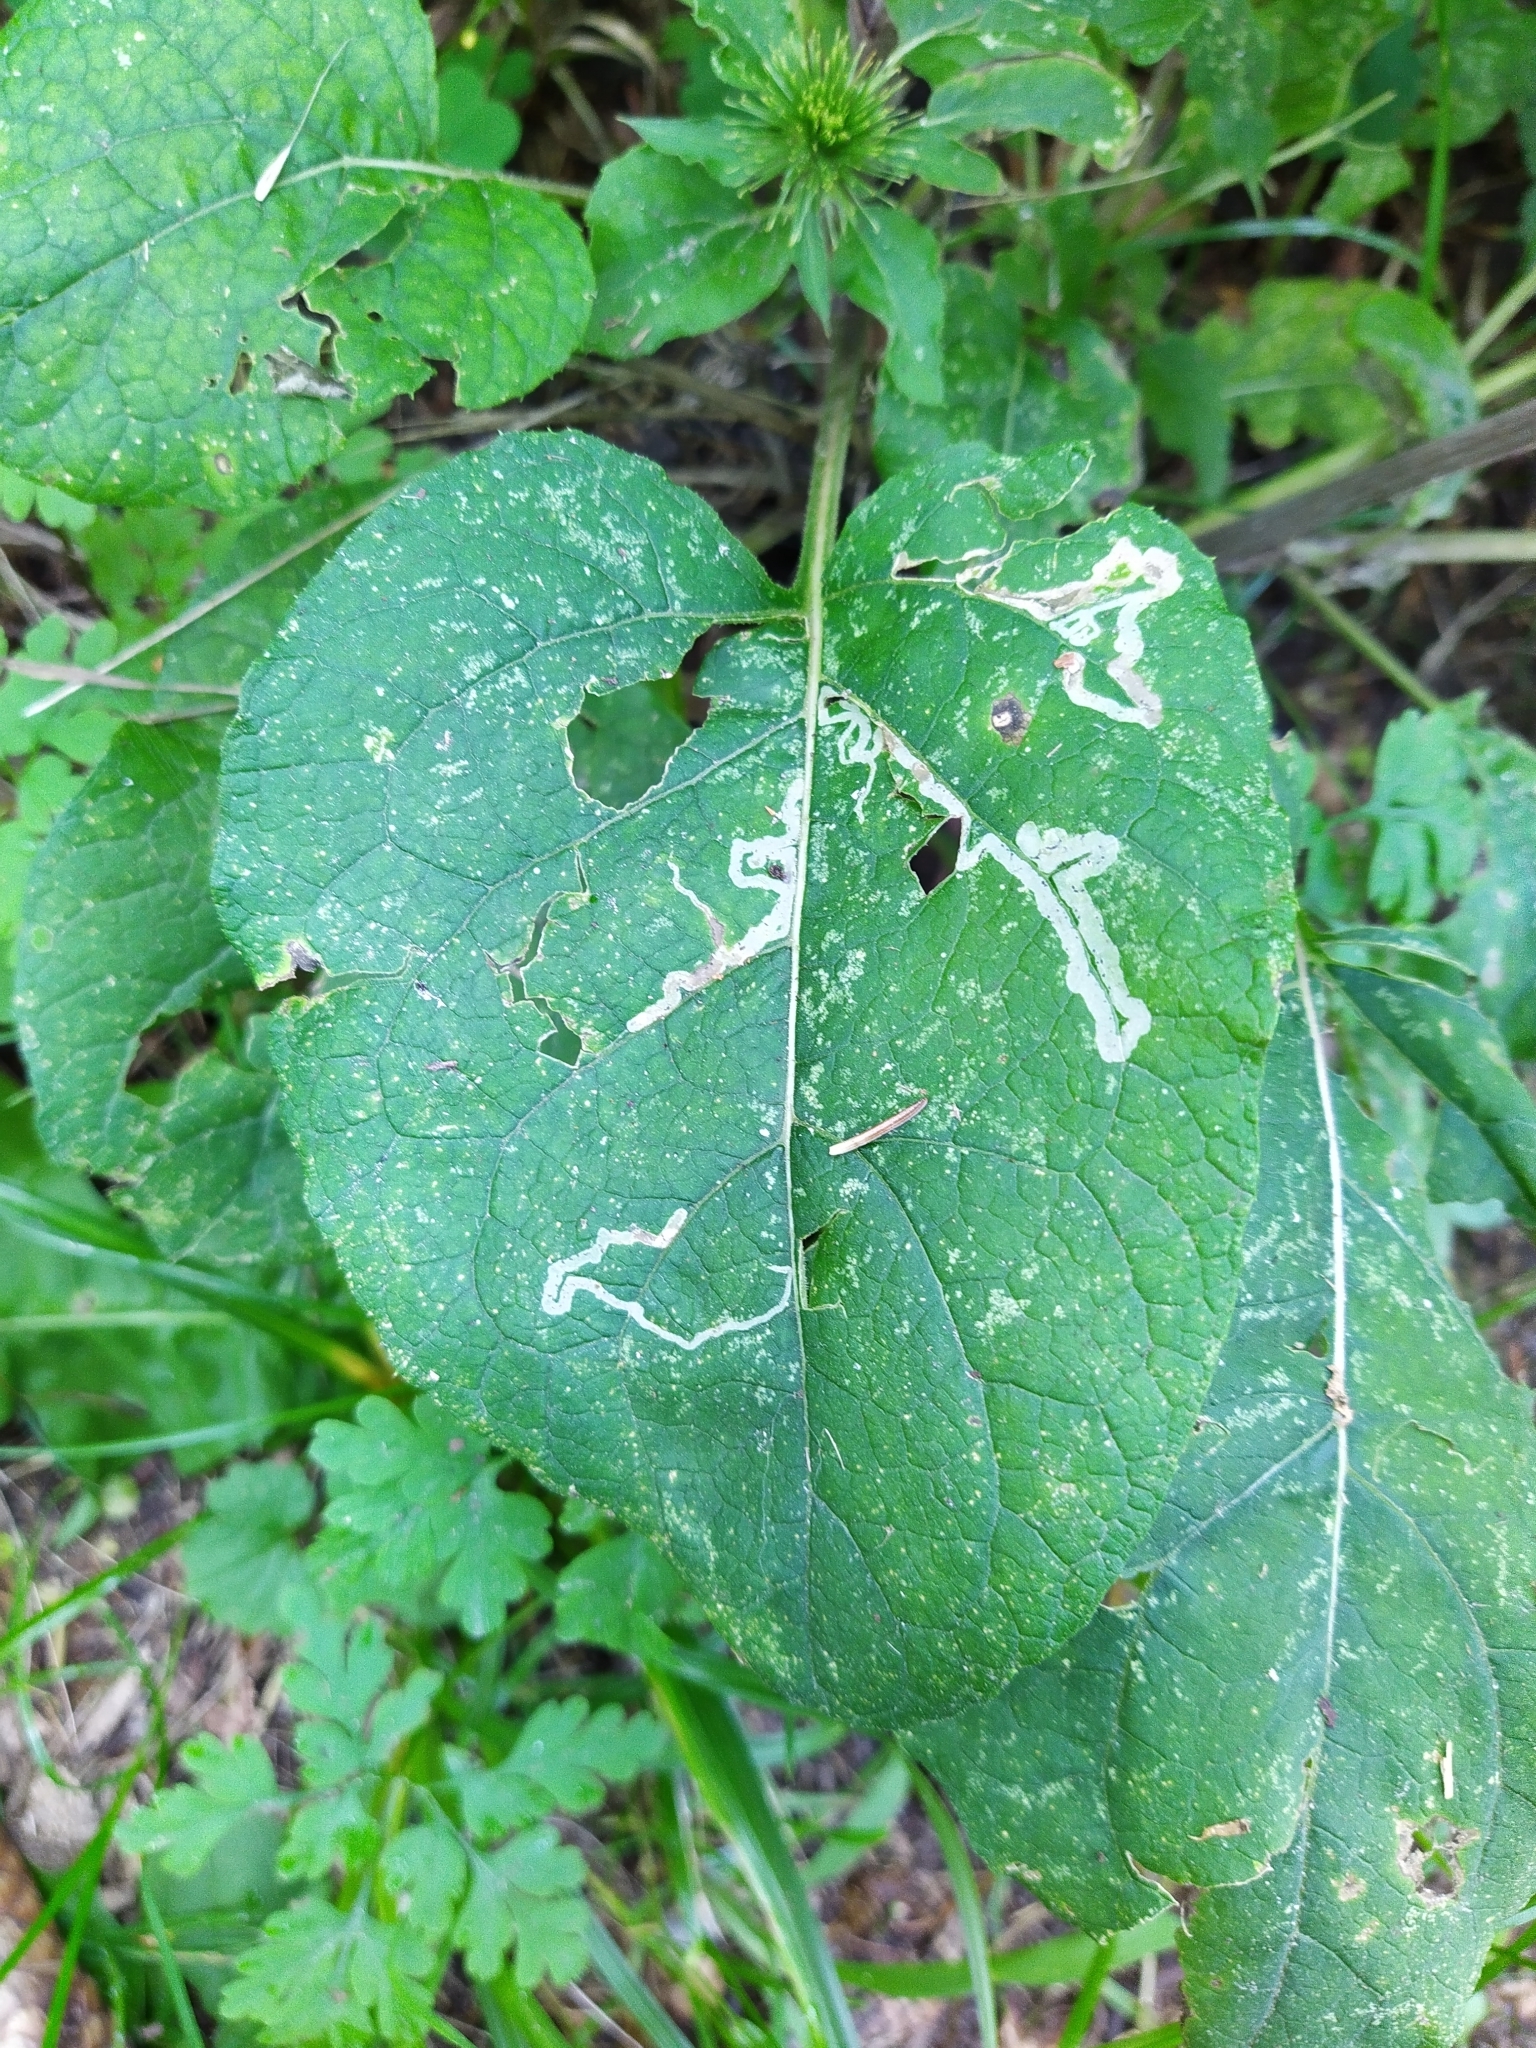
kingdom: Plantae
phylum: Tracheophyta
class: Magnoliopsida
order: Asterales
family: Asteraceae
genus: Arctium
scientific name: Arctium lappa
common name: Greater burdock
